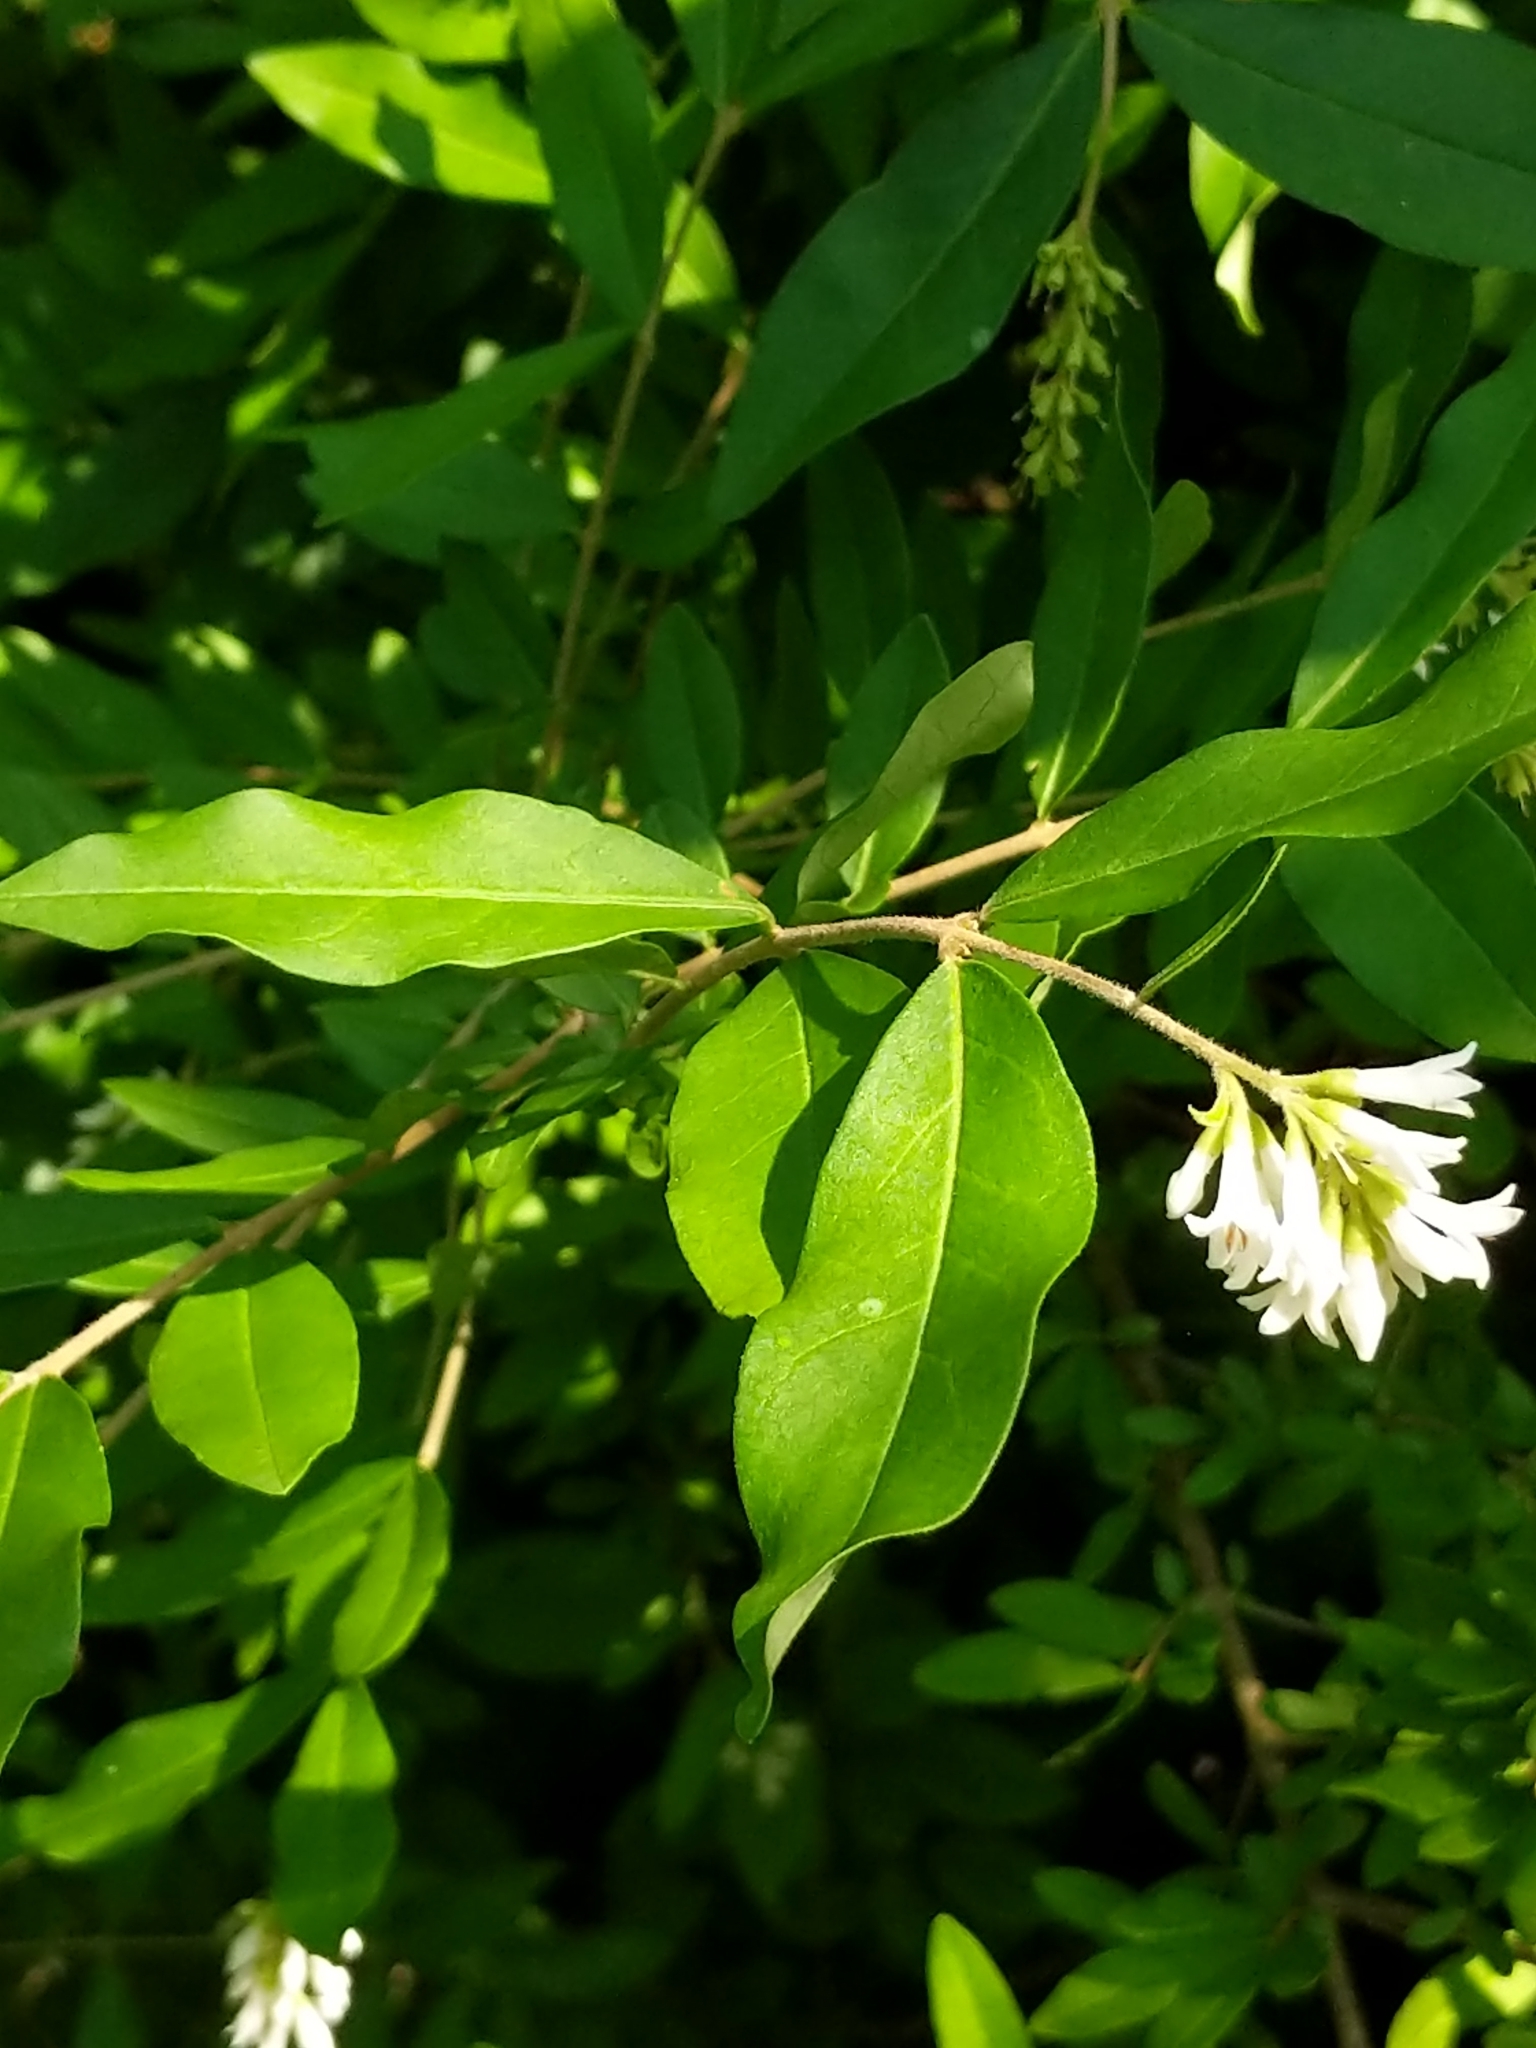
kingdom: Plantae
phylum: Tracheophyta
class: Magnoliopsida
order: Lamiales
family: Oleaceae
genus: Ligustrum
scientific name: Ligustrum obtusifolium
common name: Border privet
